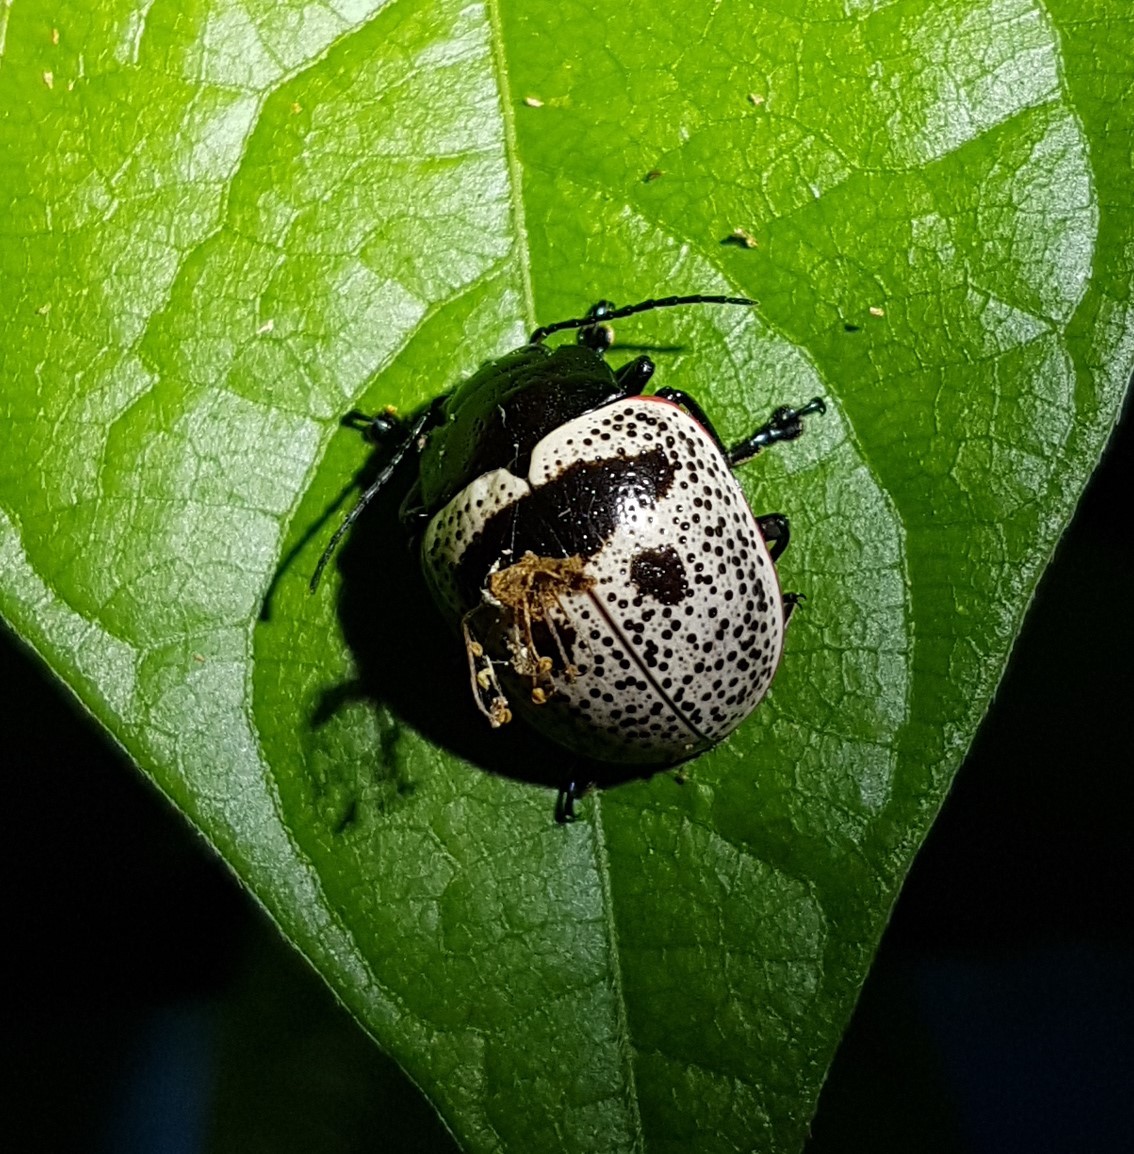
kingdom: Animalia
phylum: Arthropoda
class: Insecta
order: Coleoptera
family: Chrysomelidae
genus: Platyphora
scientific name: Platyphora
